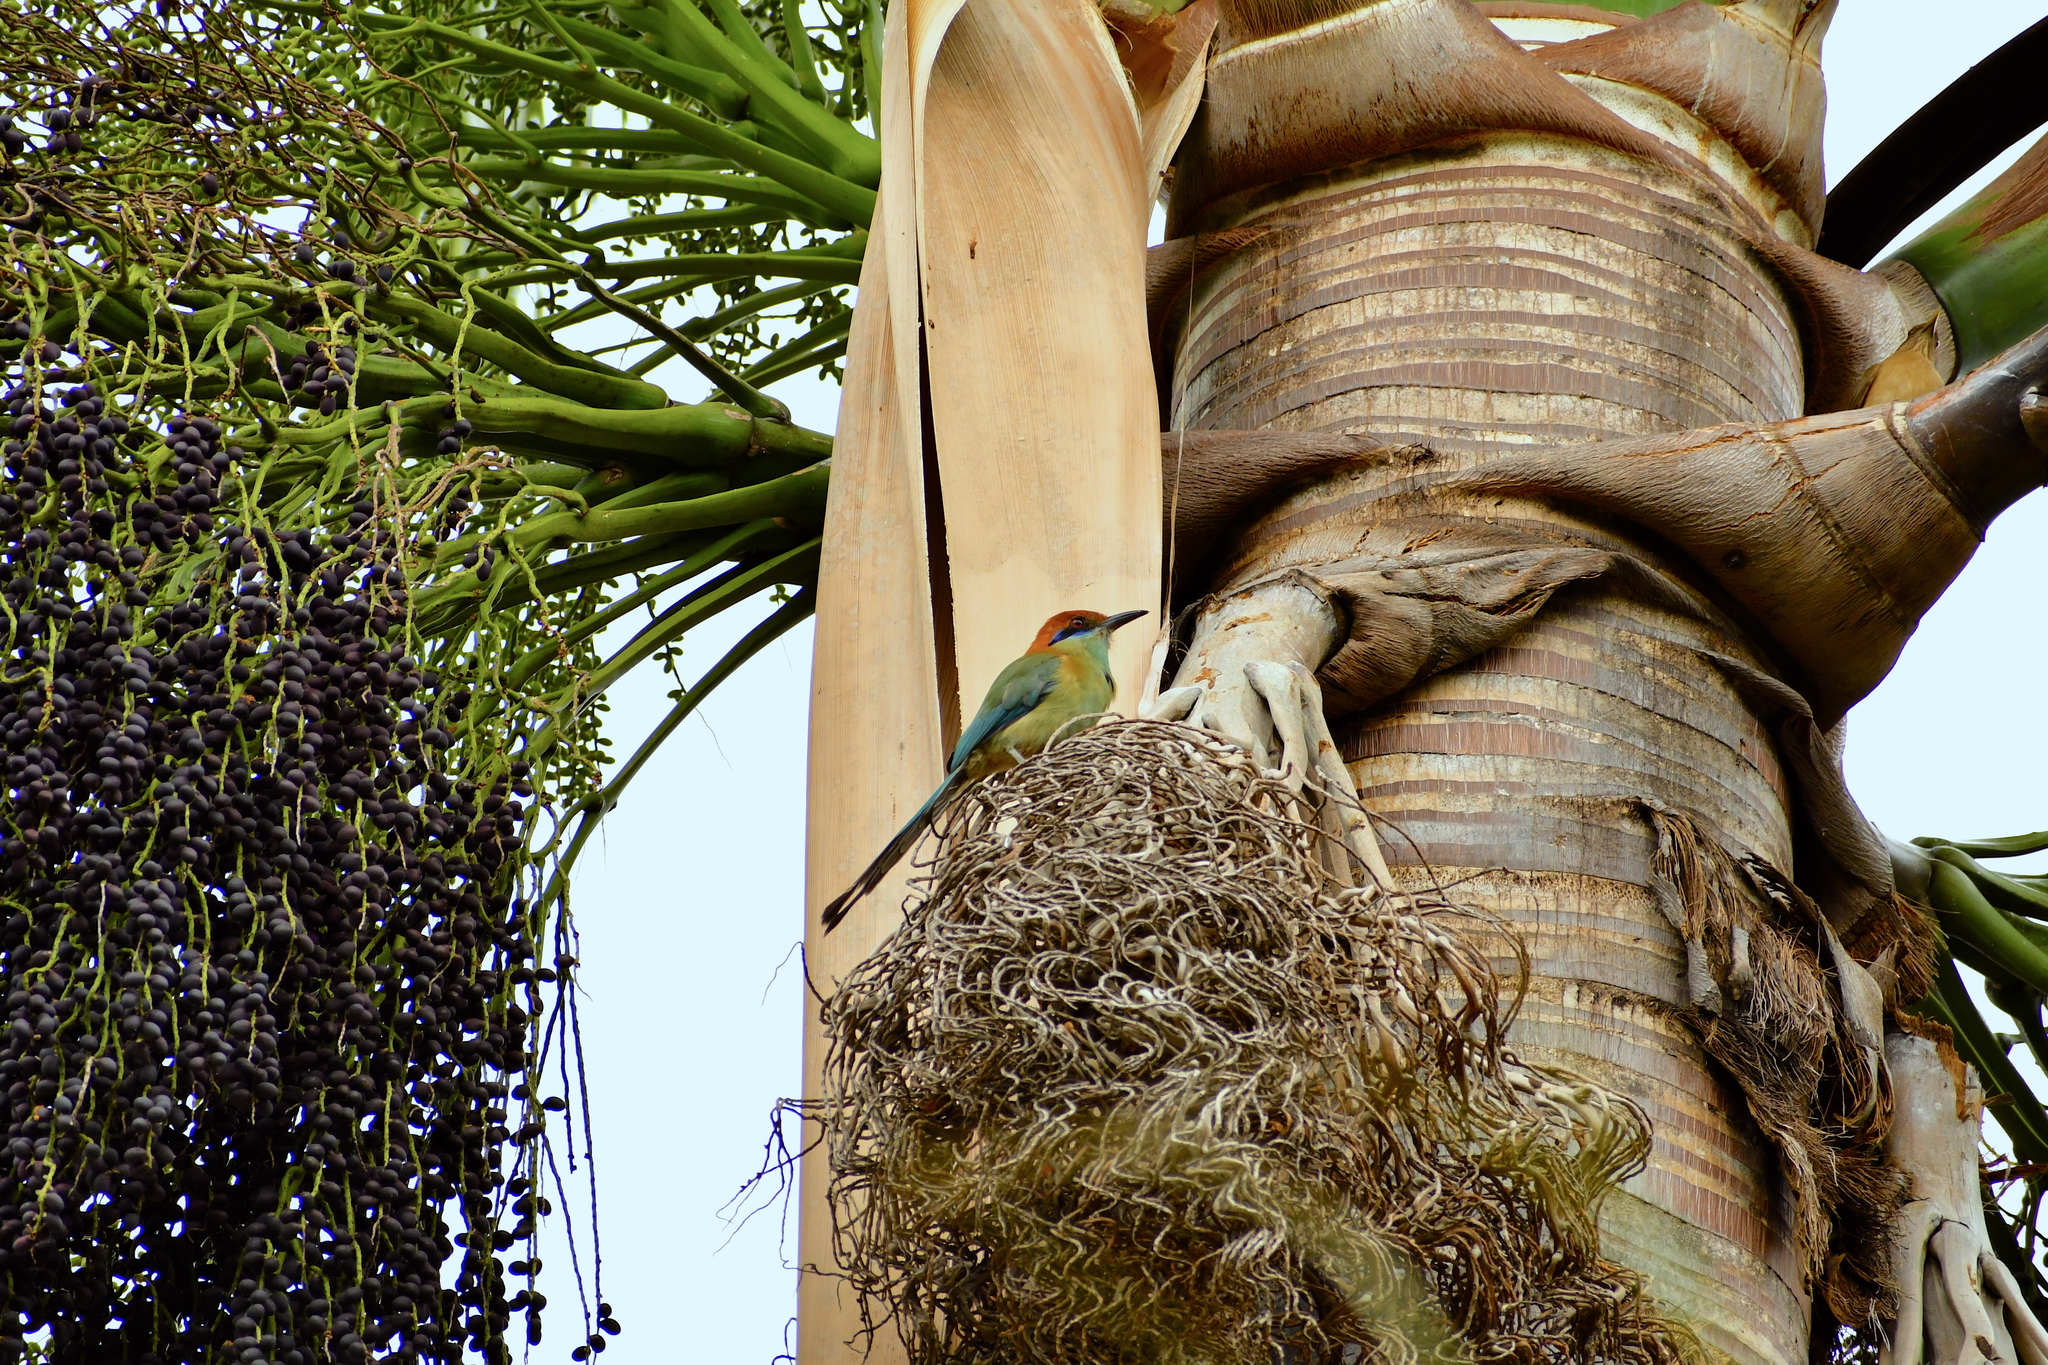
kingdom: Animalia
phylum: Chordata
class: Aves
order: Coraciiformes
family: Momotidae
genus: Momotus
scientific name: Momotus mexicanus
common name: Russet-crowned motmot
